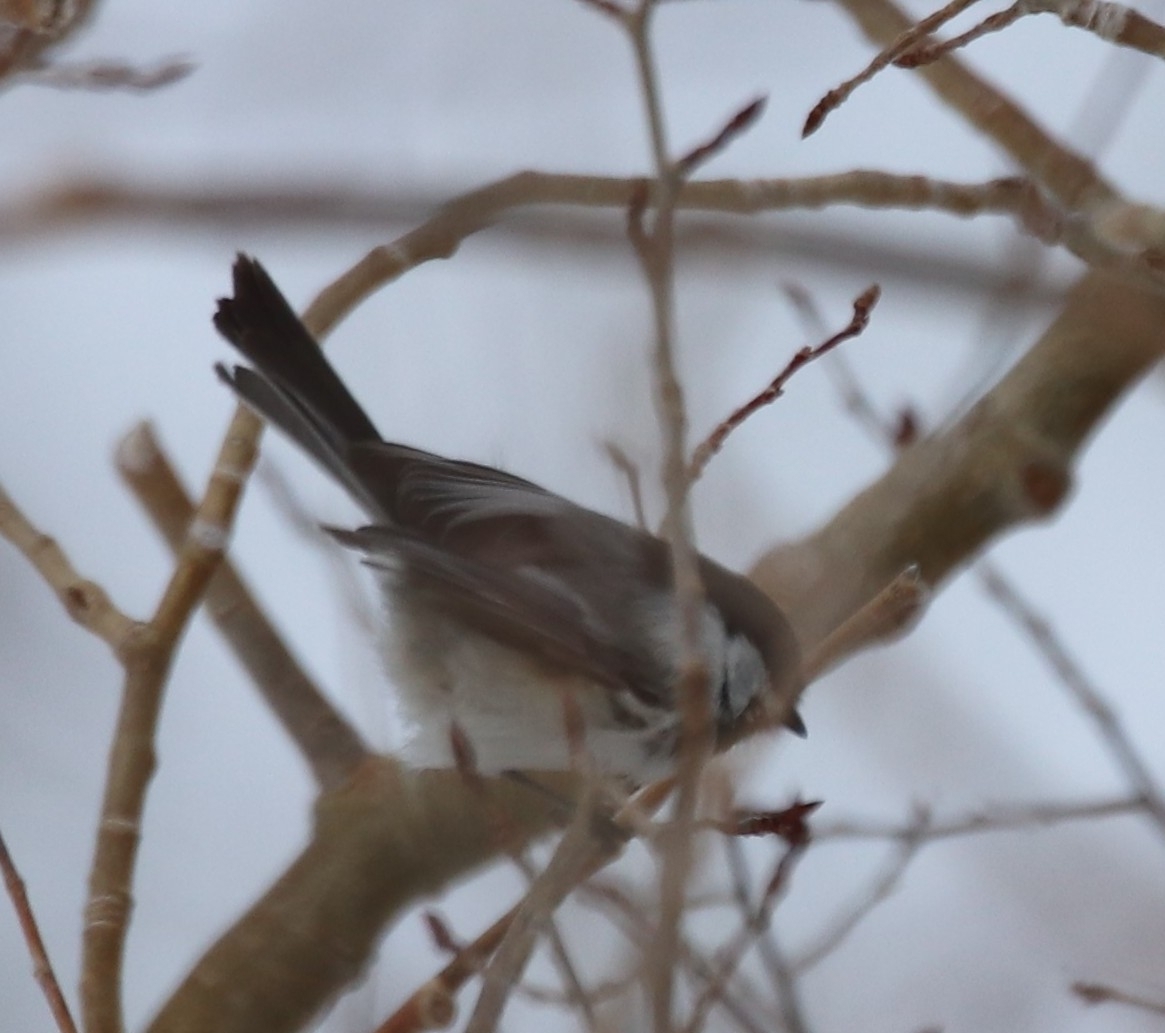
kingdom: Animalia
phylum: Chordata
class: Aves
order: Passeriformes
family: Paridae
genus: Poecile
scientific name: Poecile atricapillus
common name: Black-capped chickadee
